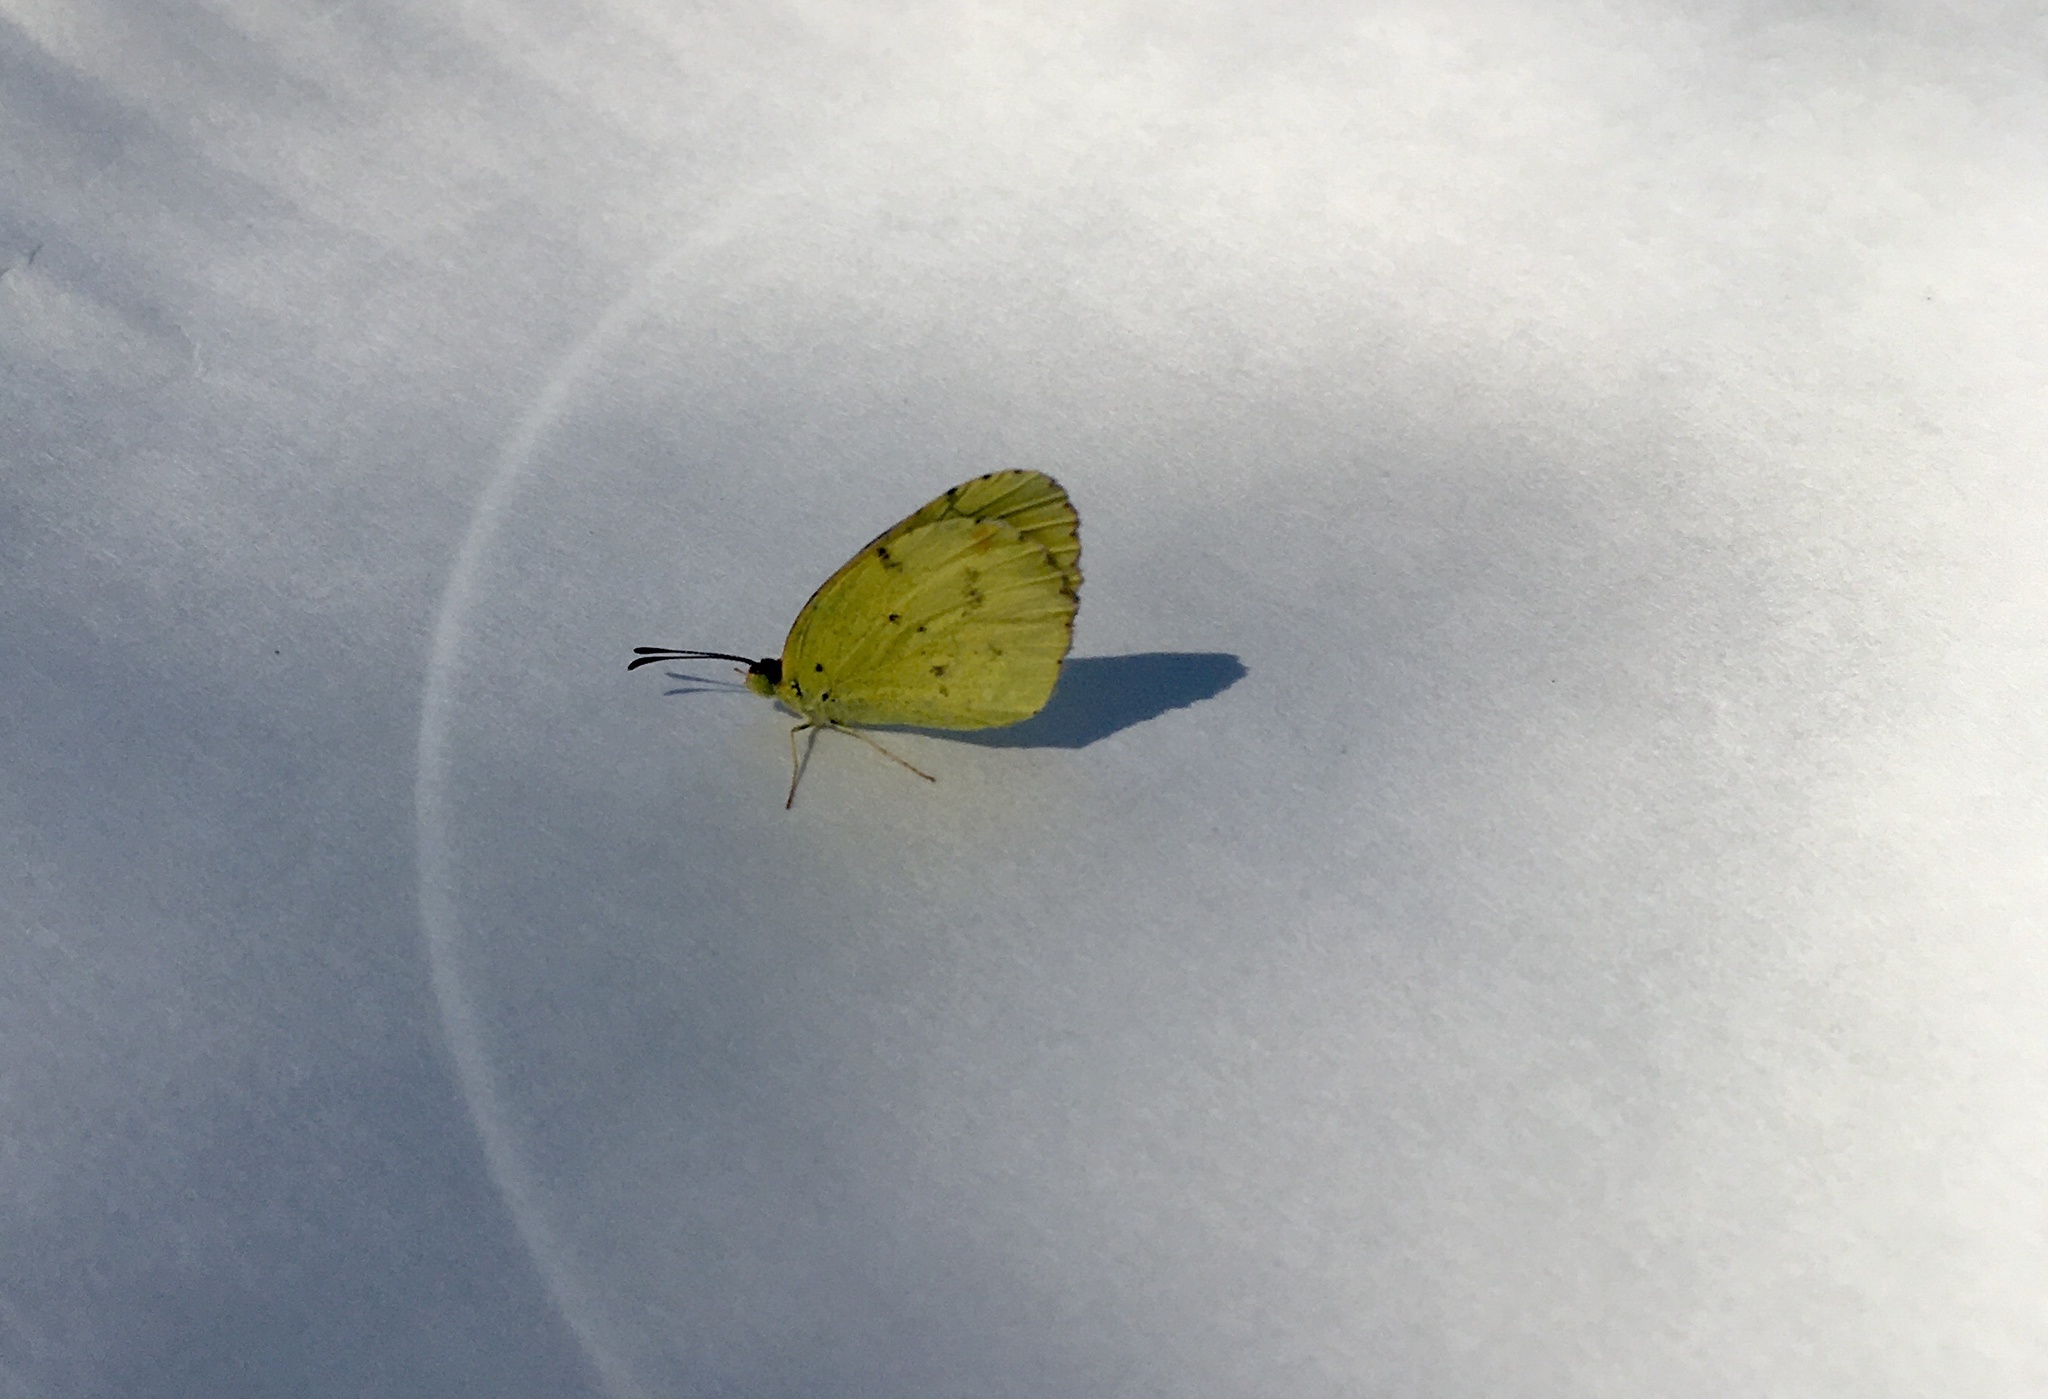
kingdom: Animalia
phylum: Arthropoda
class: Insecta
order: Lepidoptera
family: Pieridae
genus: Pyrisitia
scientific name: Pyrisitia lisa
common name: Little yellow
